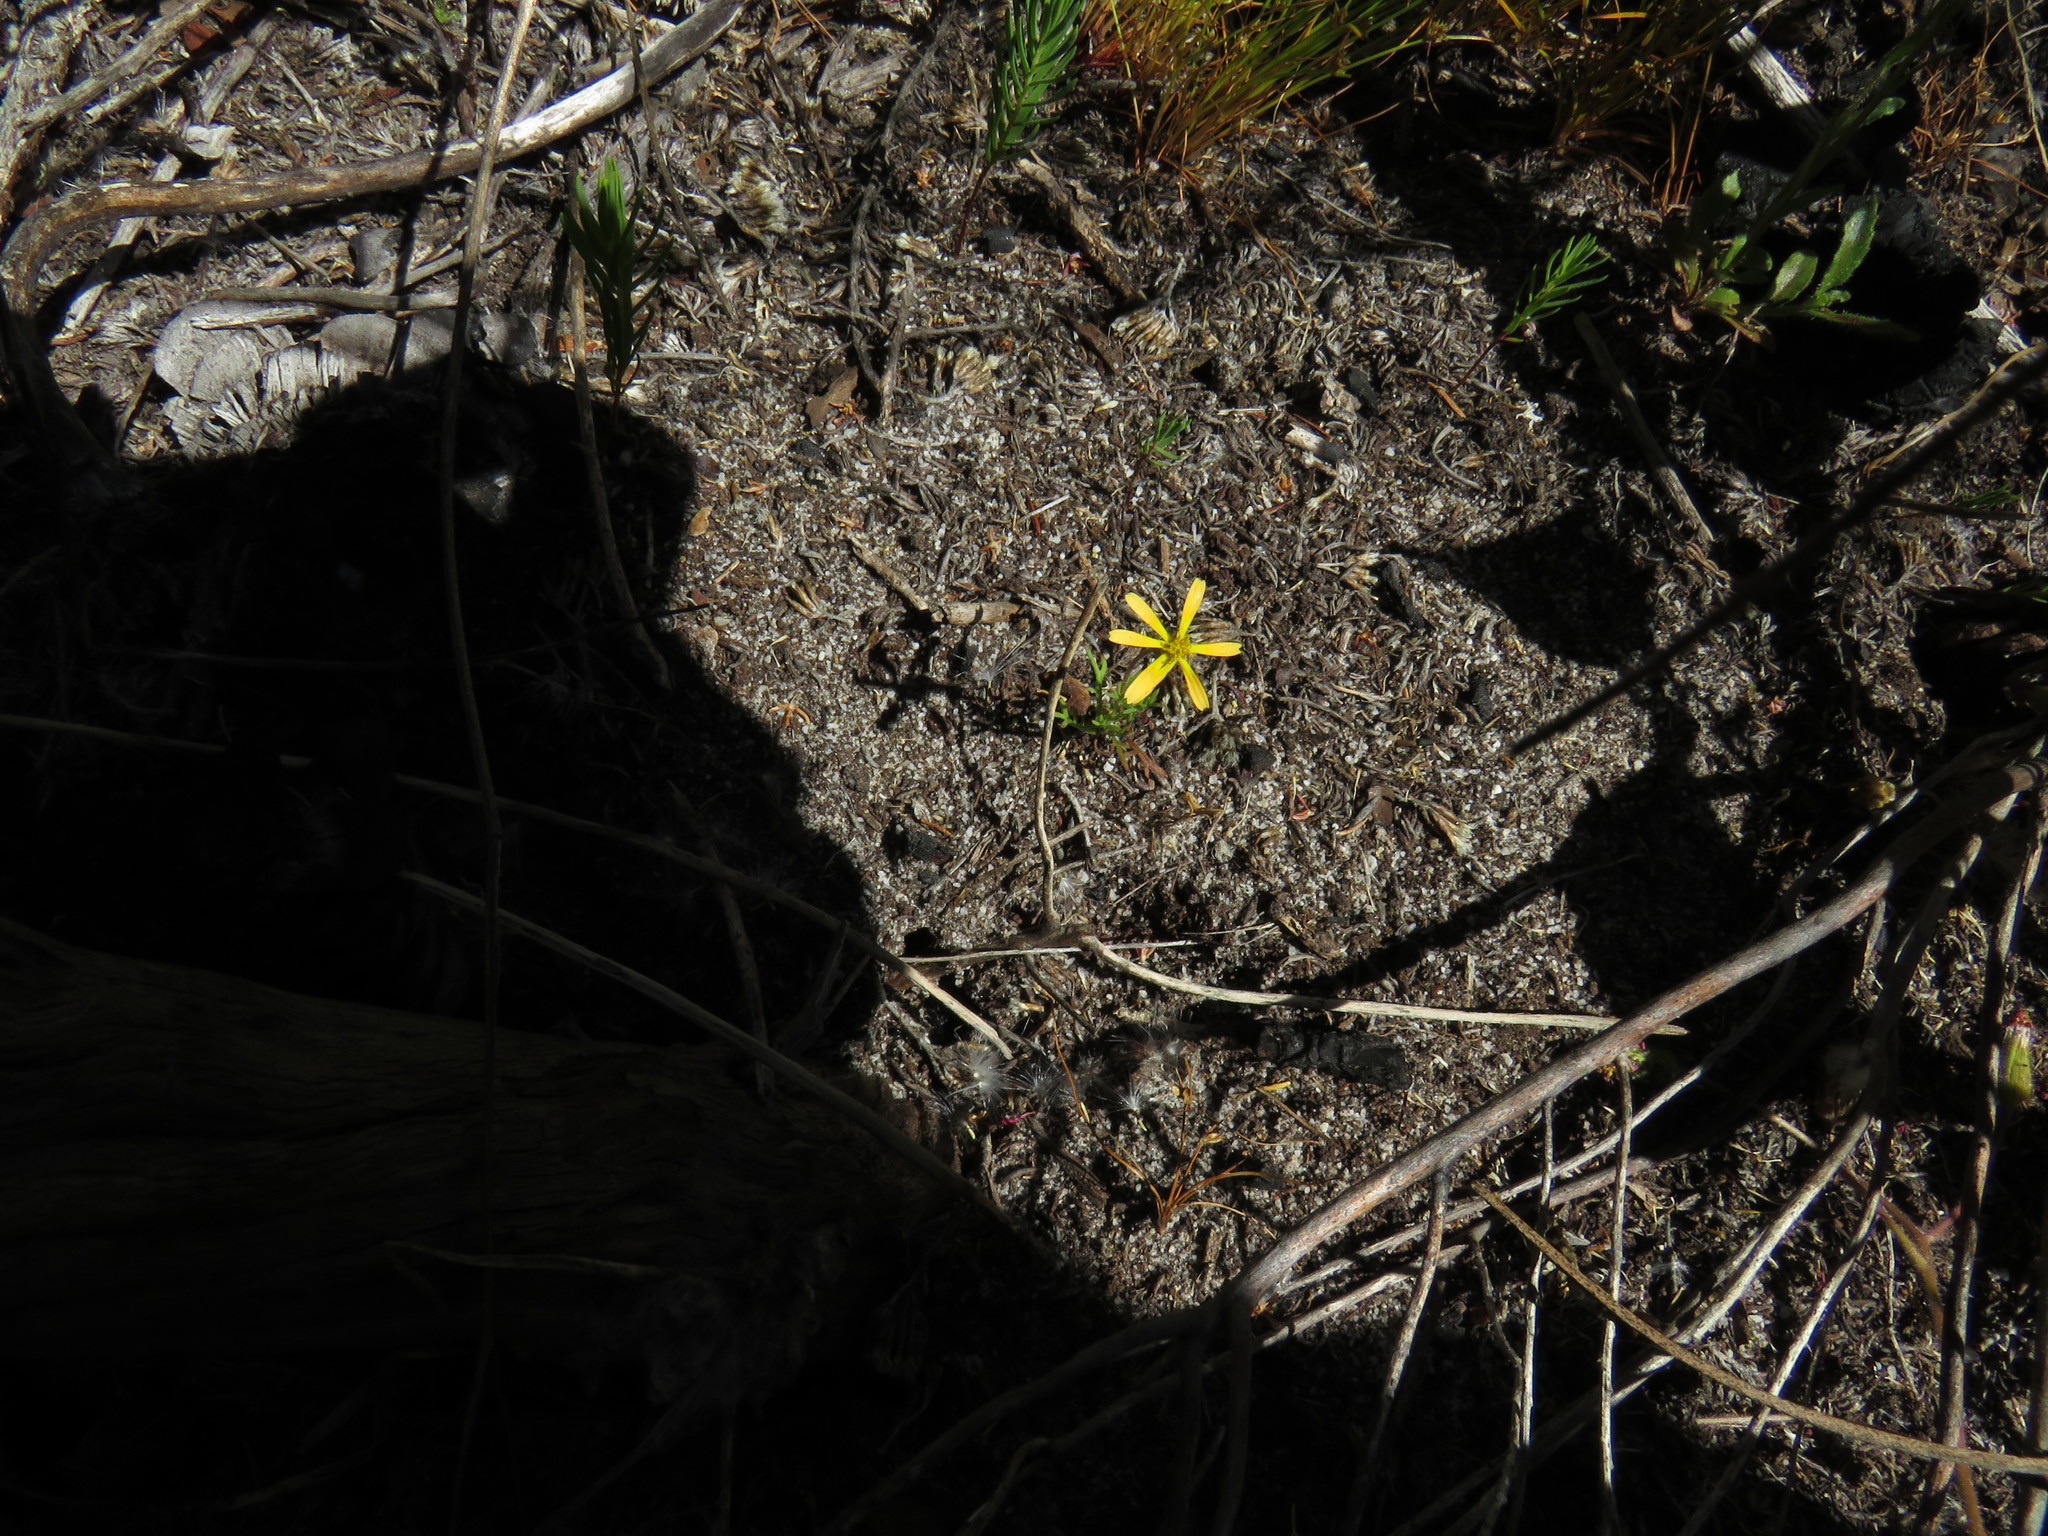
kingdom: Plantae
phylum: Tracheophyta
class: Magnoliopsida
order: Asterales
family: Asteraceae
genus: Ursinia
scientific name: Ursinia anthemoides
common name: Ursinia
